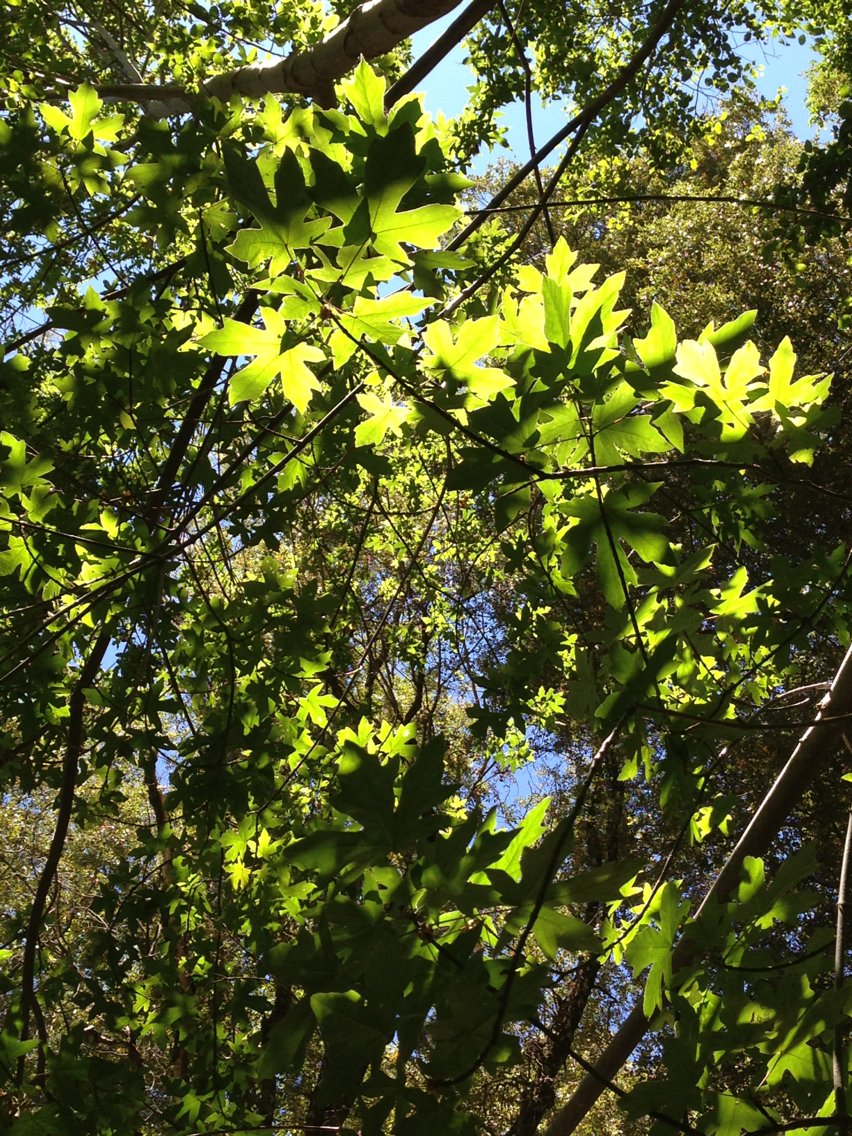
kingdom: Plantae
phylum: Tracheophyta
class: Magnoliopsida
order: Sapindales
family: Sapindaceae
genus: Acer
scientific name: Acer macrophyllum
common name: Oregon maple
